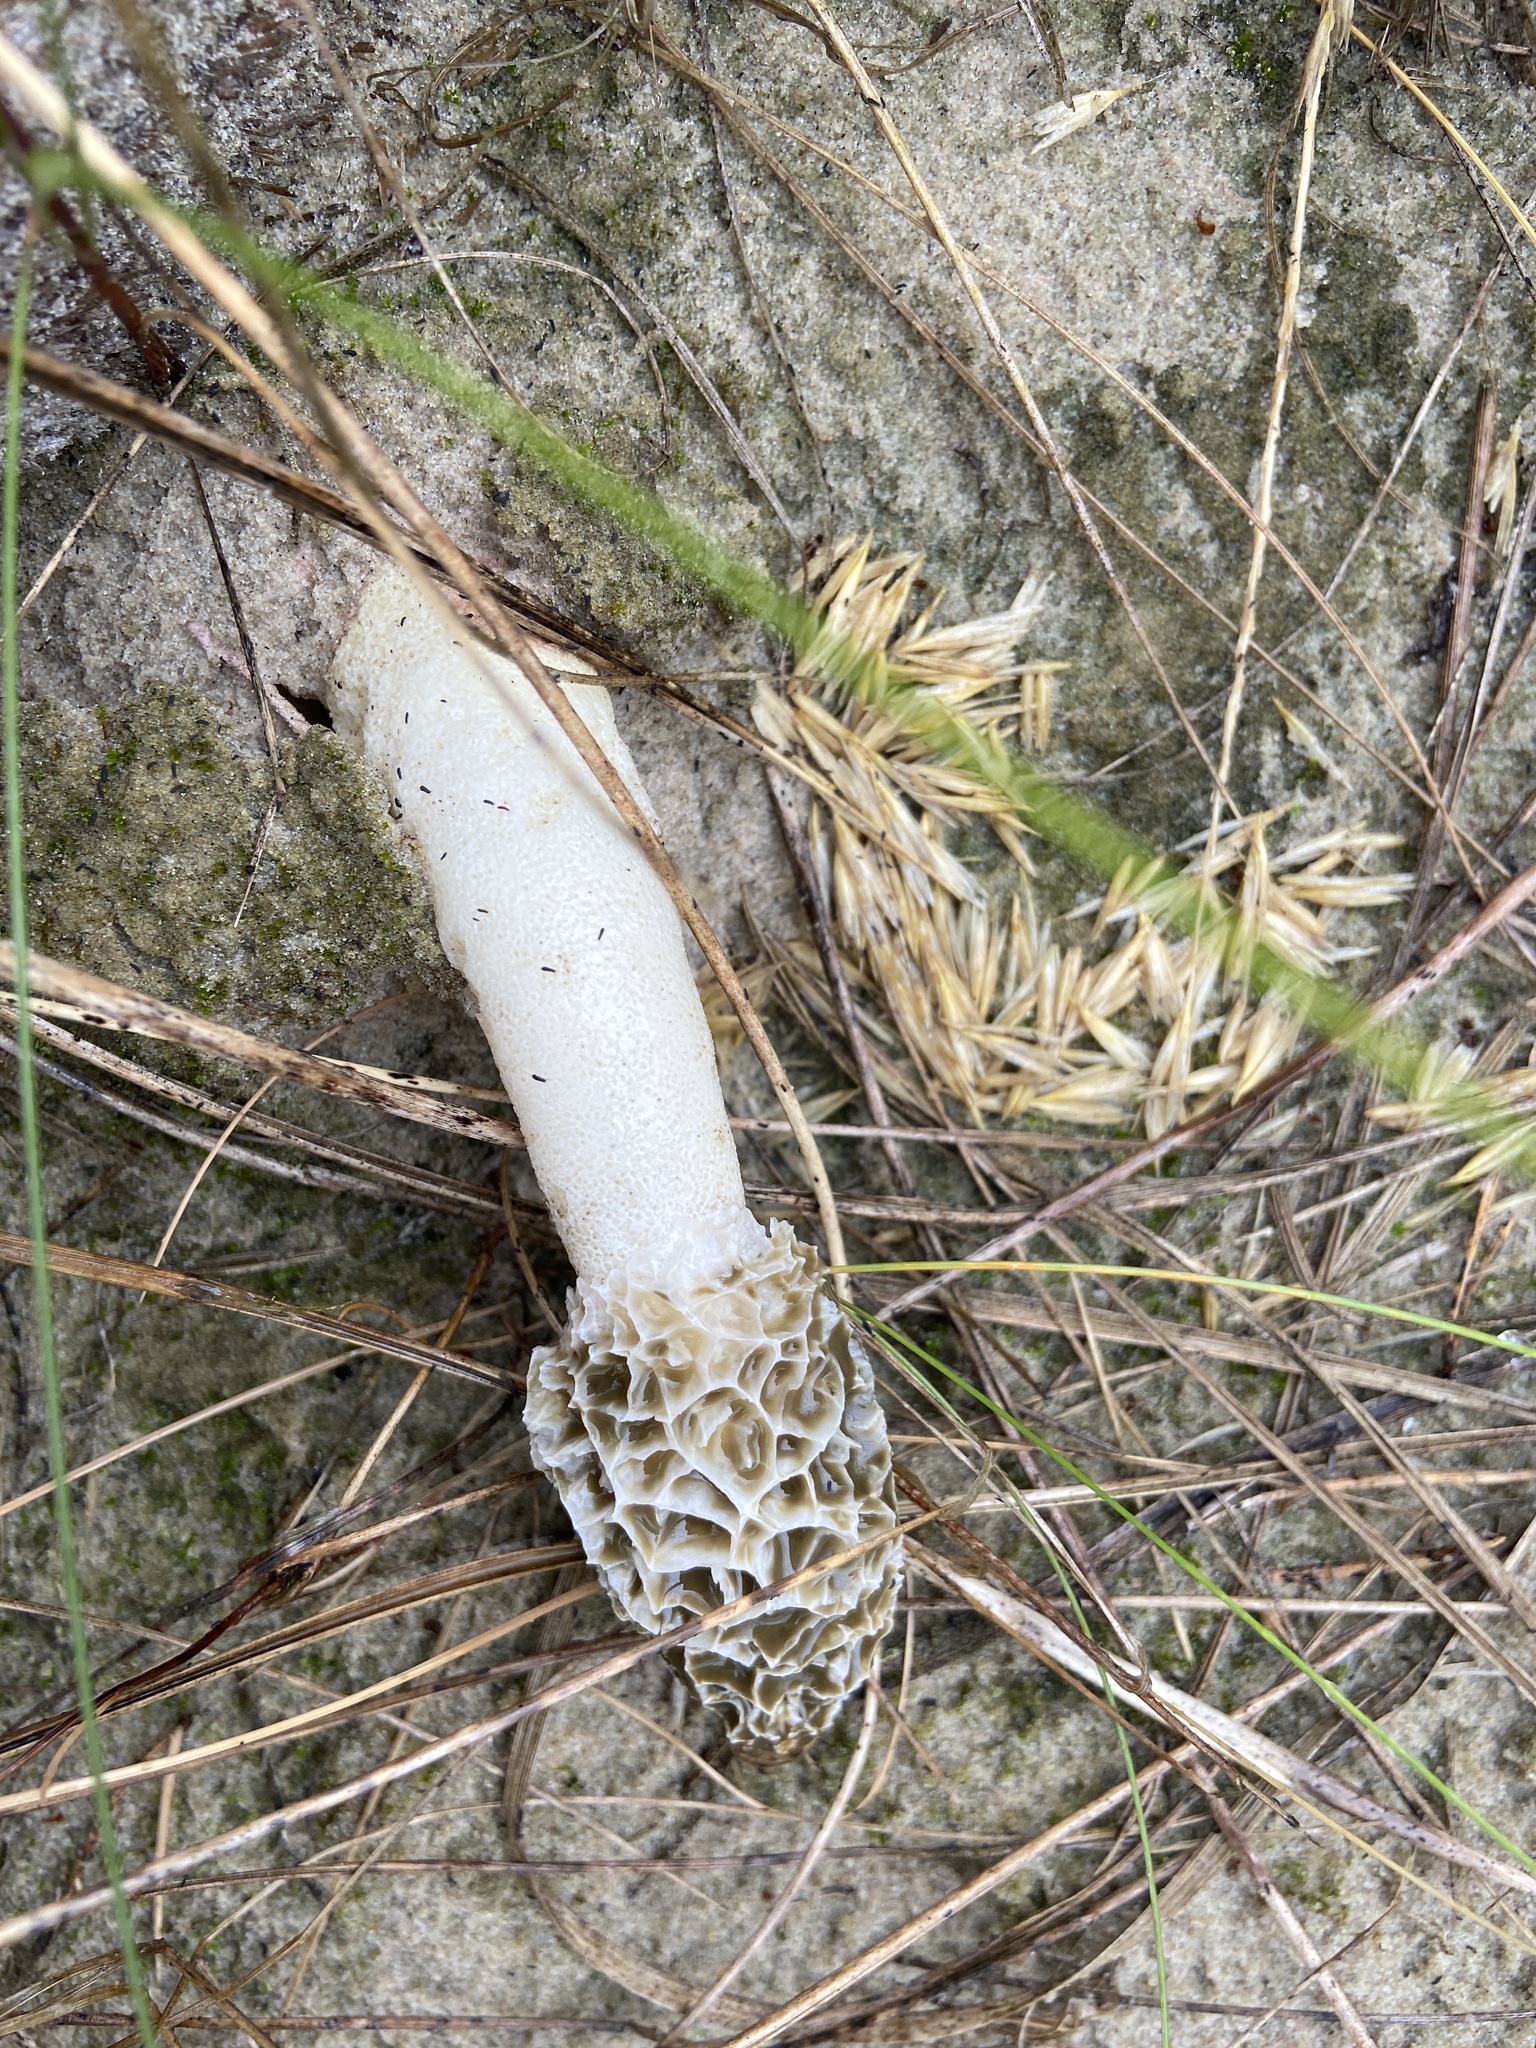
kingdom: Fungi
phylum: Basidiomycota
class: Agaricomycetes
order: Phallales
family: Phallaceae
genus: Phallus
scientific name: Phallus hadriani
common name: Sand stinkhorn
